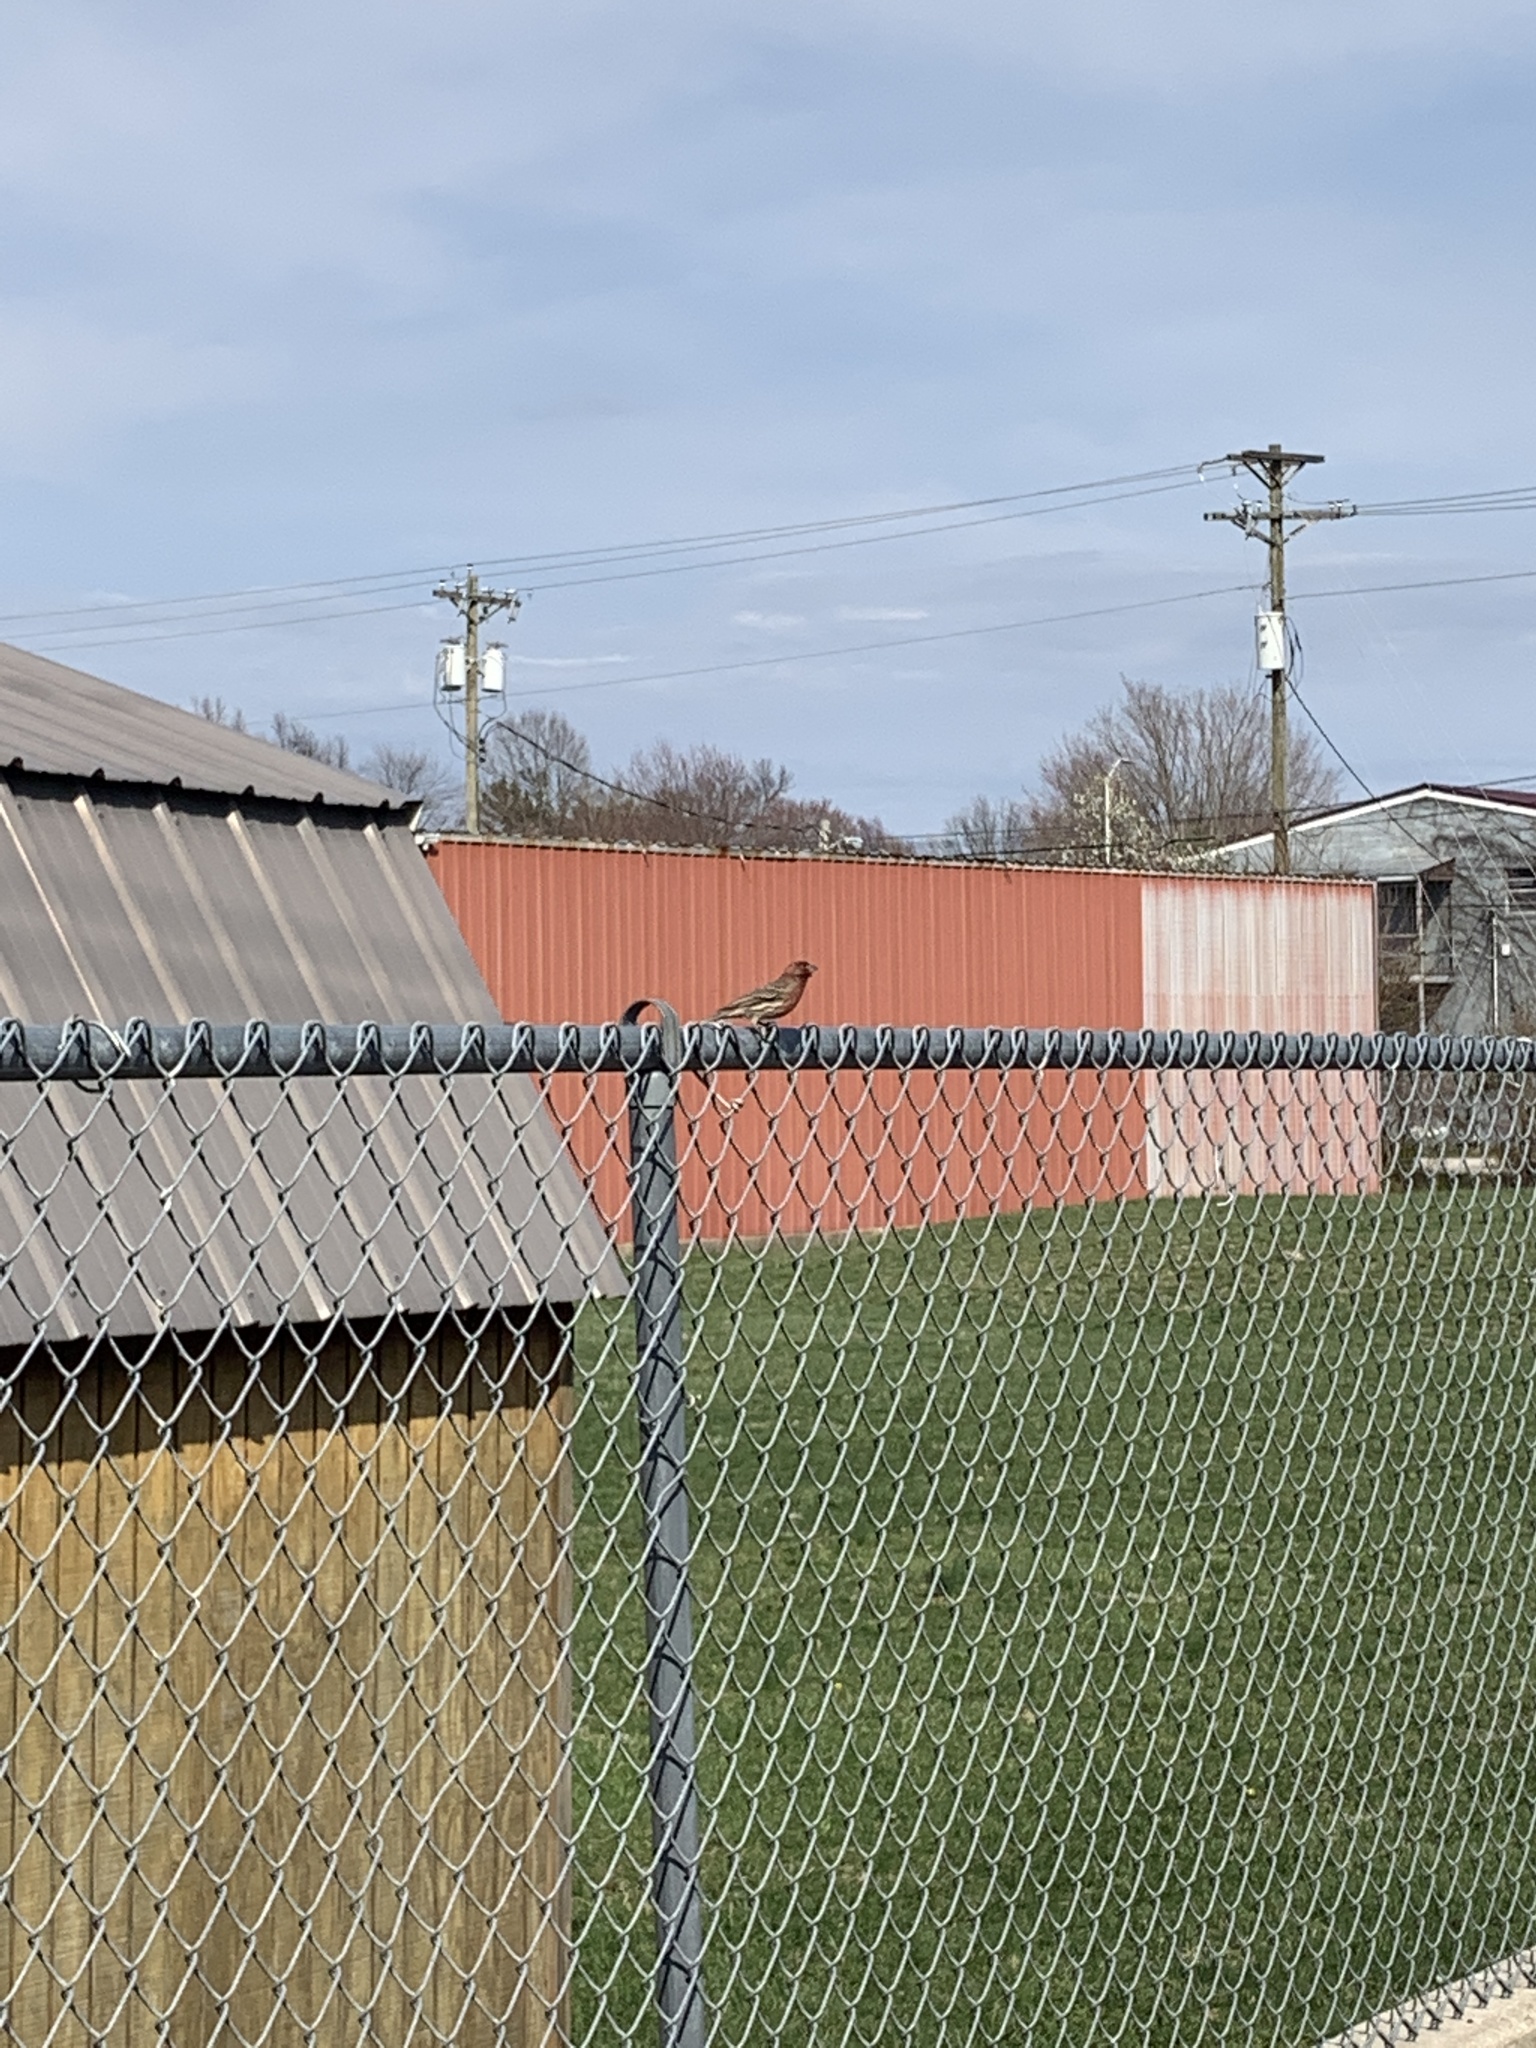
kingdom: Animalia
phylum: Chordata
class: Aves
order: Passeriformes
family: Fringillidae
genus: Haemorhous
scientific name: Haemorhous mexicanus
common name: House finch
